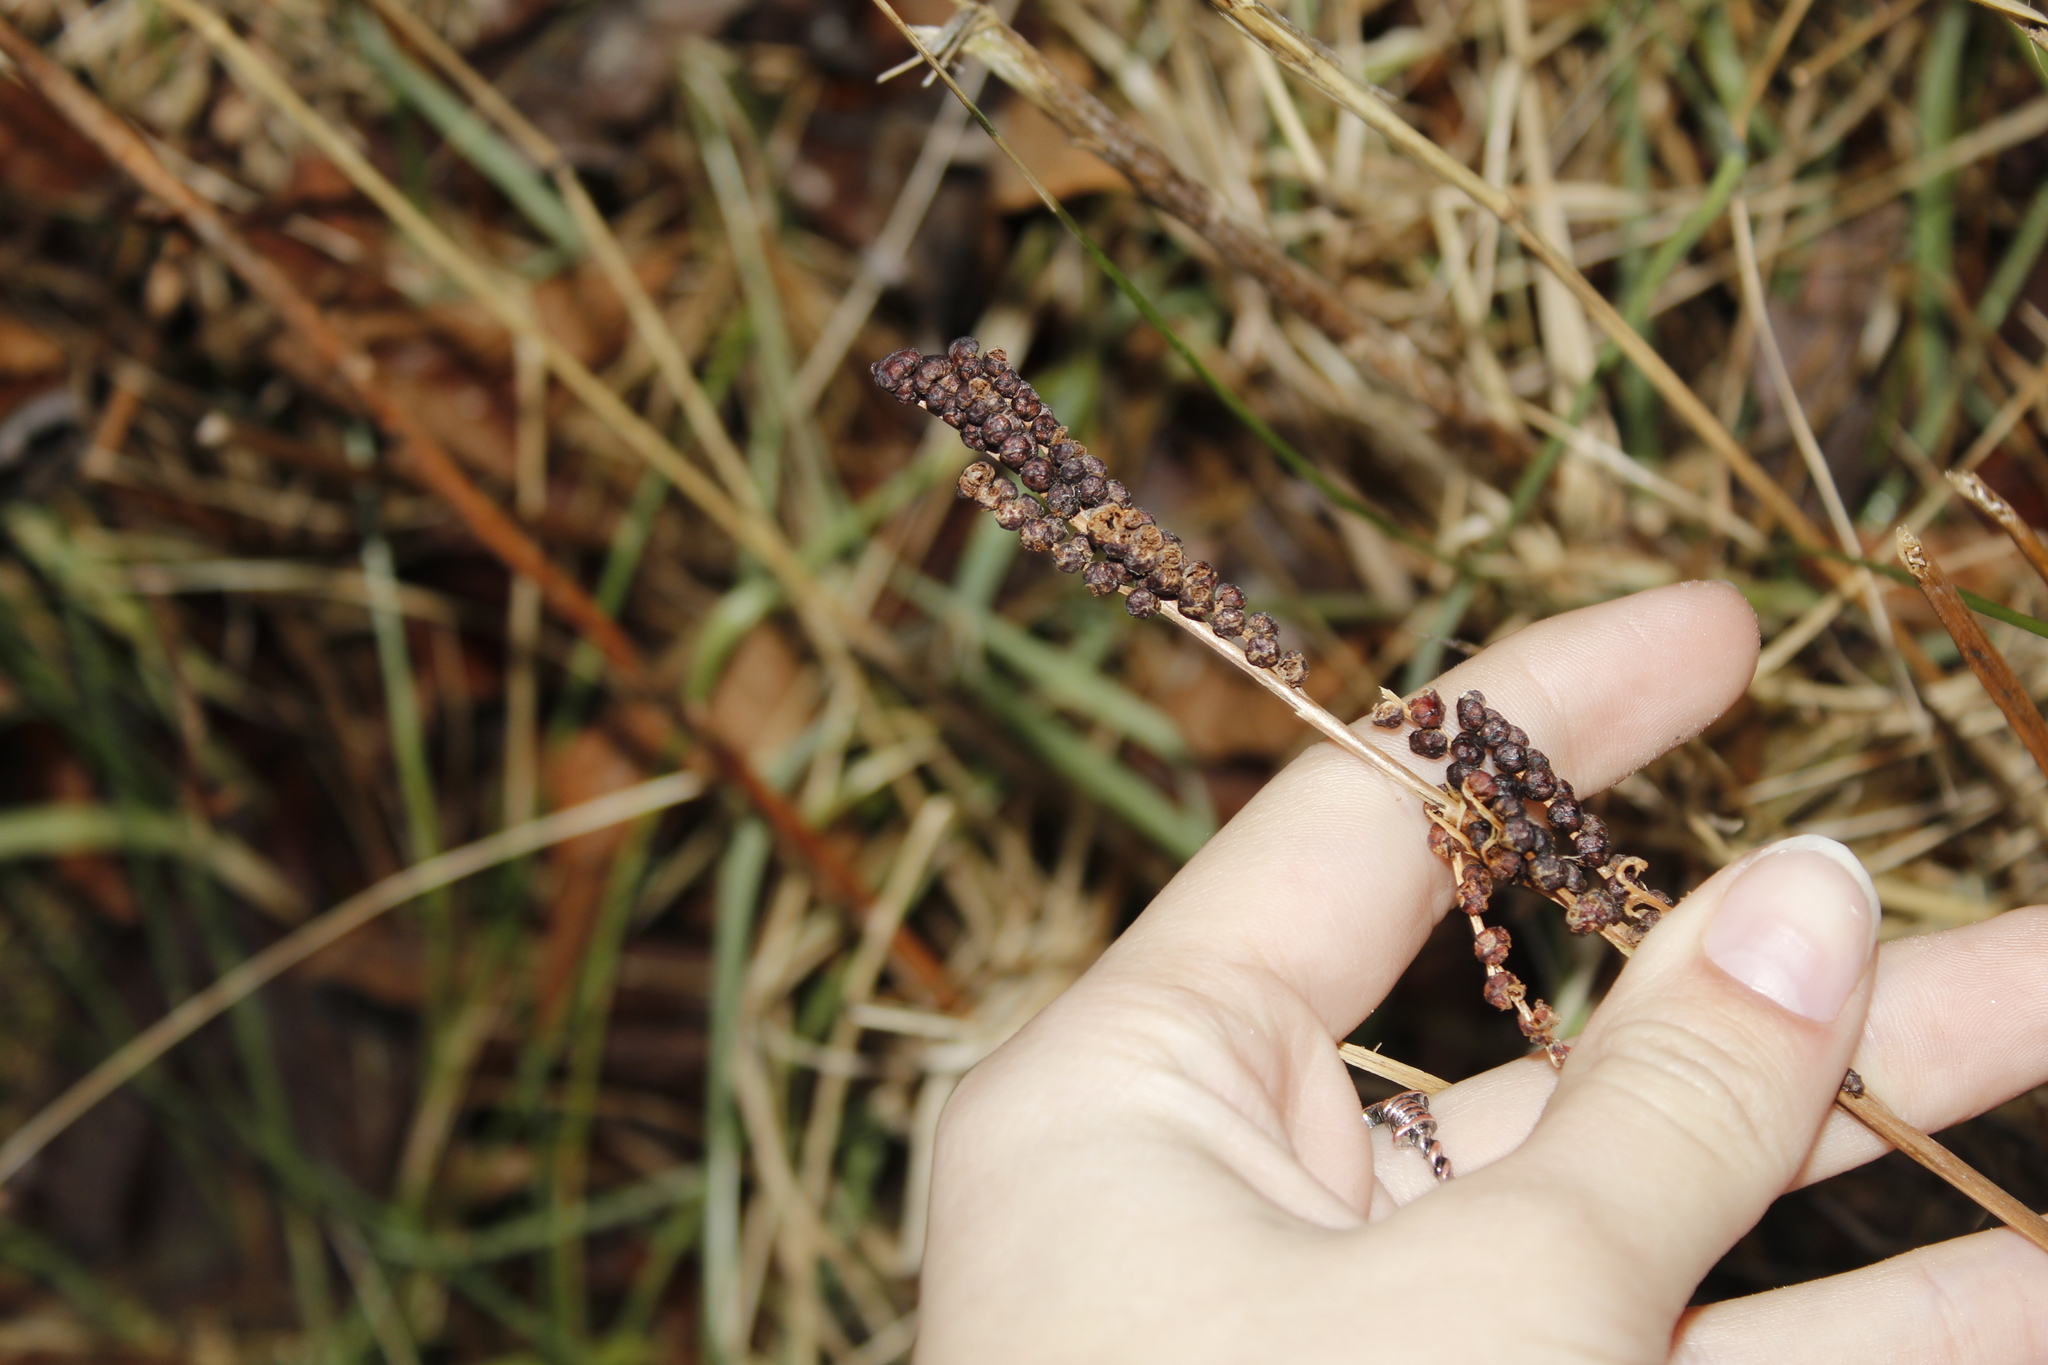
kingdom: Plantae
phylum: Tracheophyta
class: Polypodiopsida
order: Polypodiales
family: Onocleaceae
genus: Onoclea
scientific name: Onoclea sensibilis
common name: Sensitive fern
